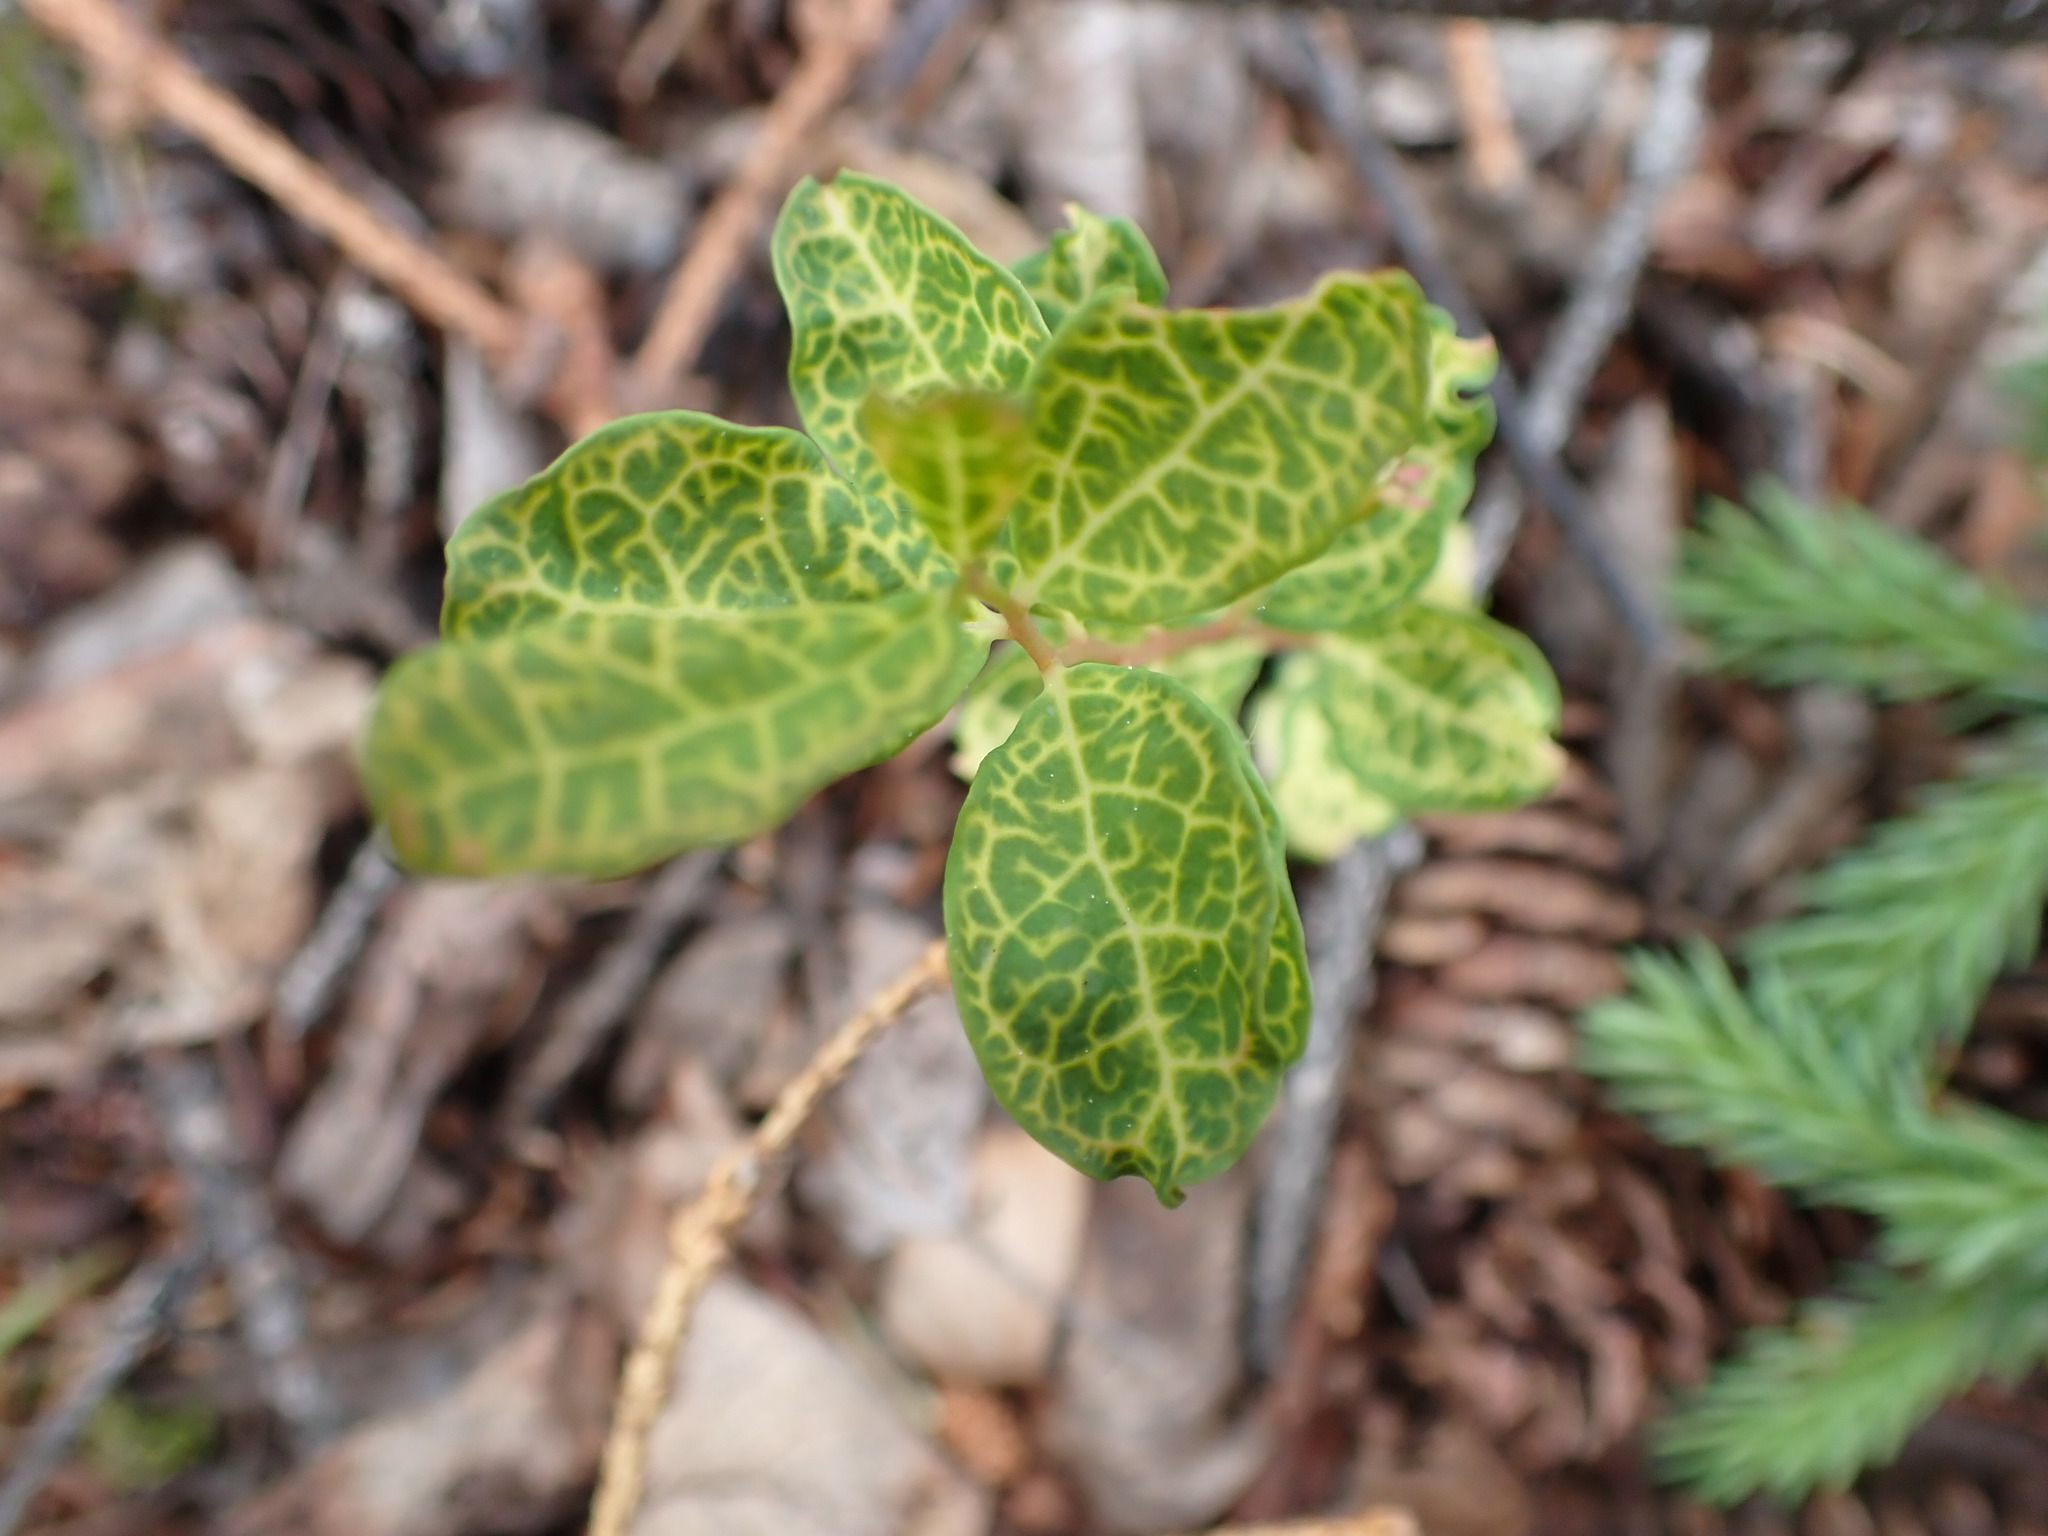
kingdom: Plantae
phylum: Tracheophyta
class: Magnoliopsida
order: Santalales
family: Comandraceae
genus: Geocaulon
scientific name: Geocaulon lividum
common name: Earthberry
